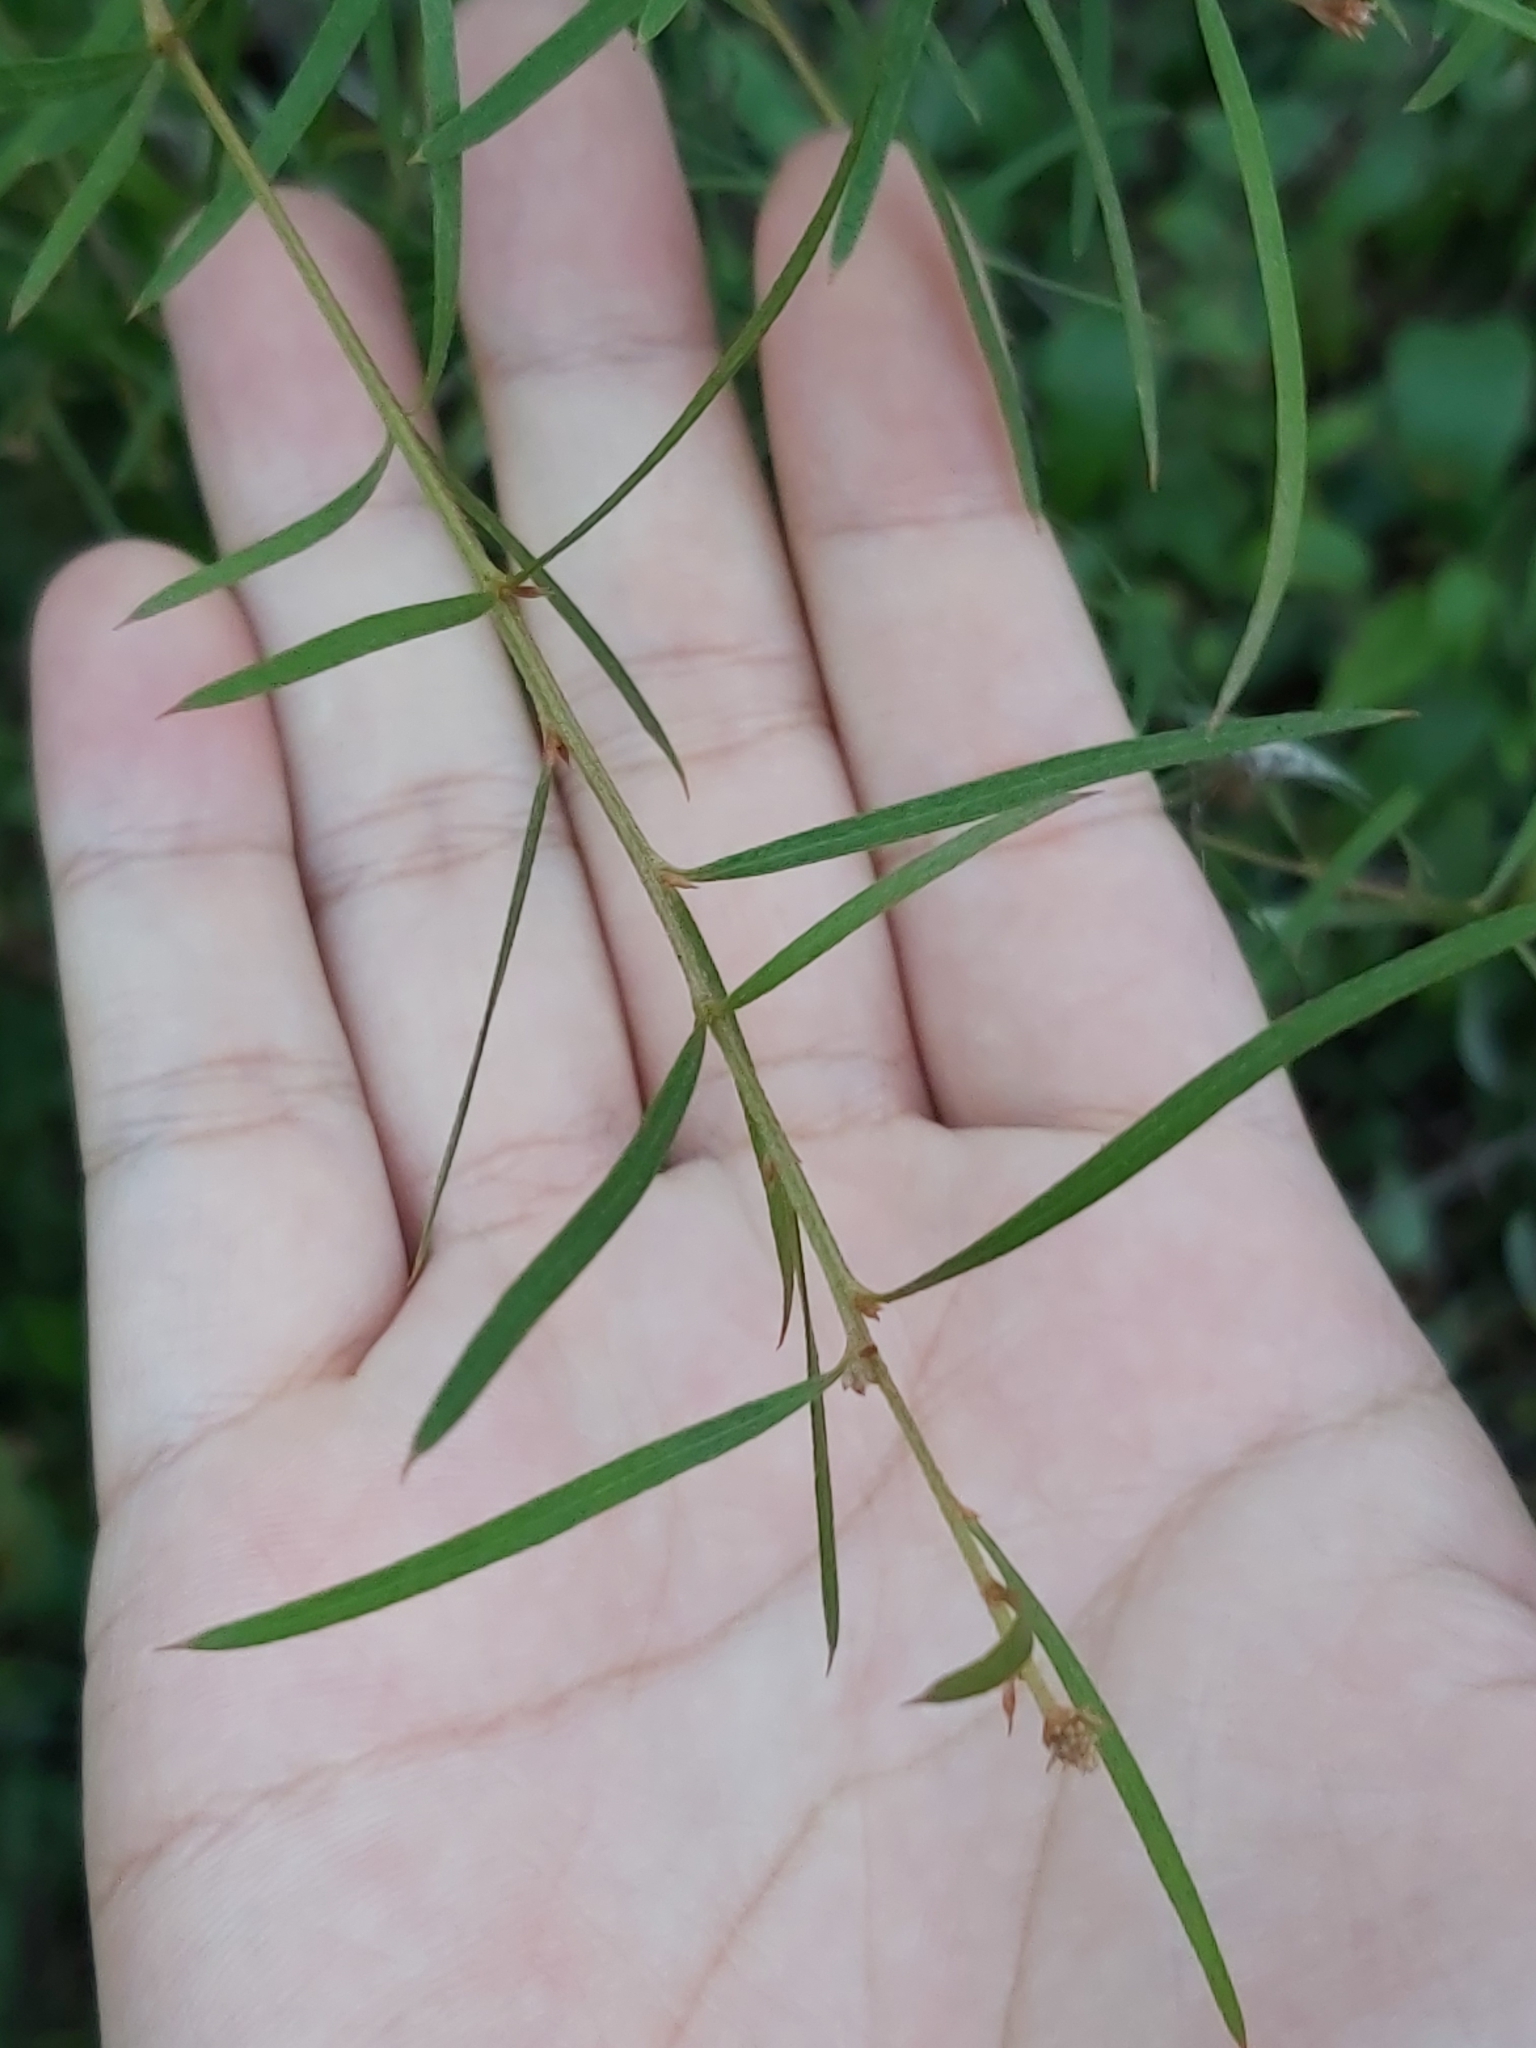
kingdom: Plantae
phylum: Tracheophyta
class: Magnoliopsida
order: Proteales
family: Proteaceae
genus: Grevillea
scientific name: Grevillea linearifolia
